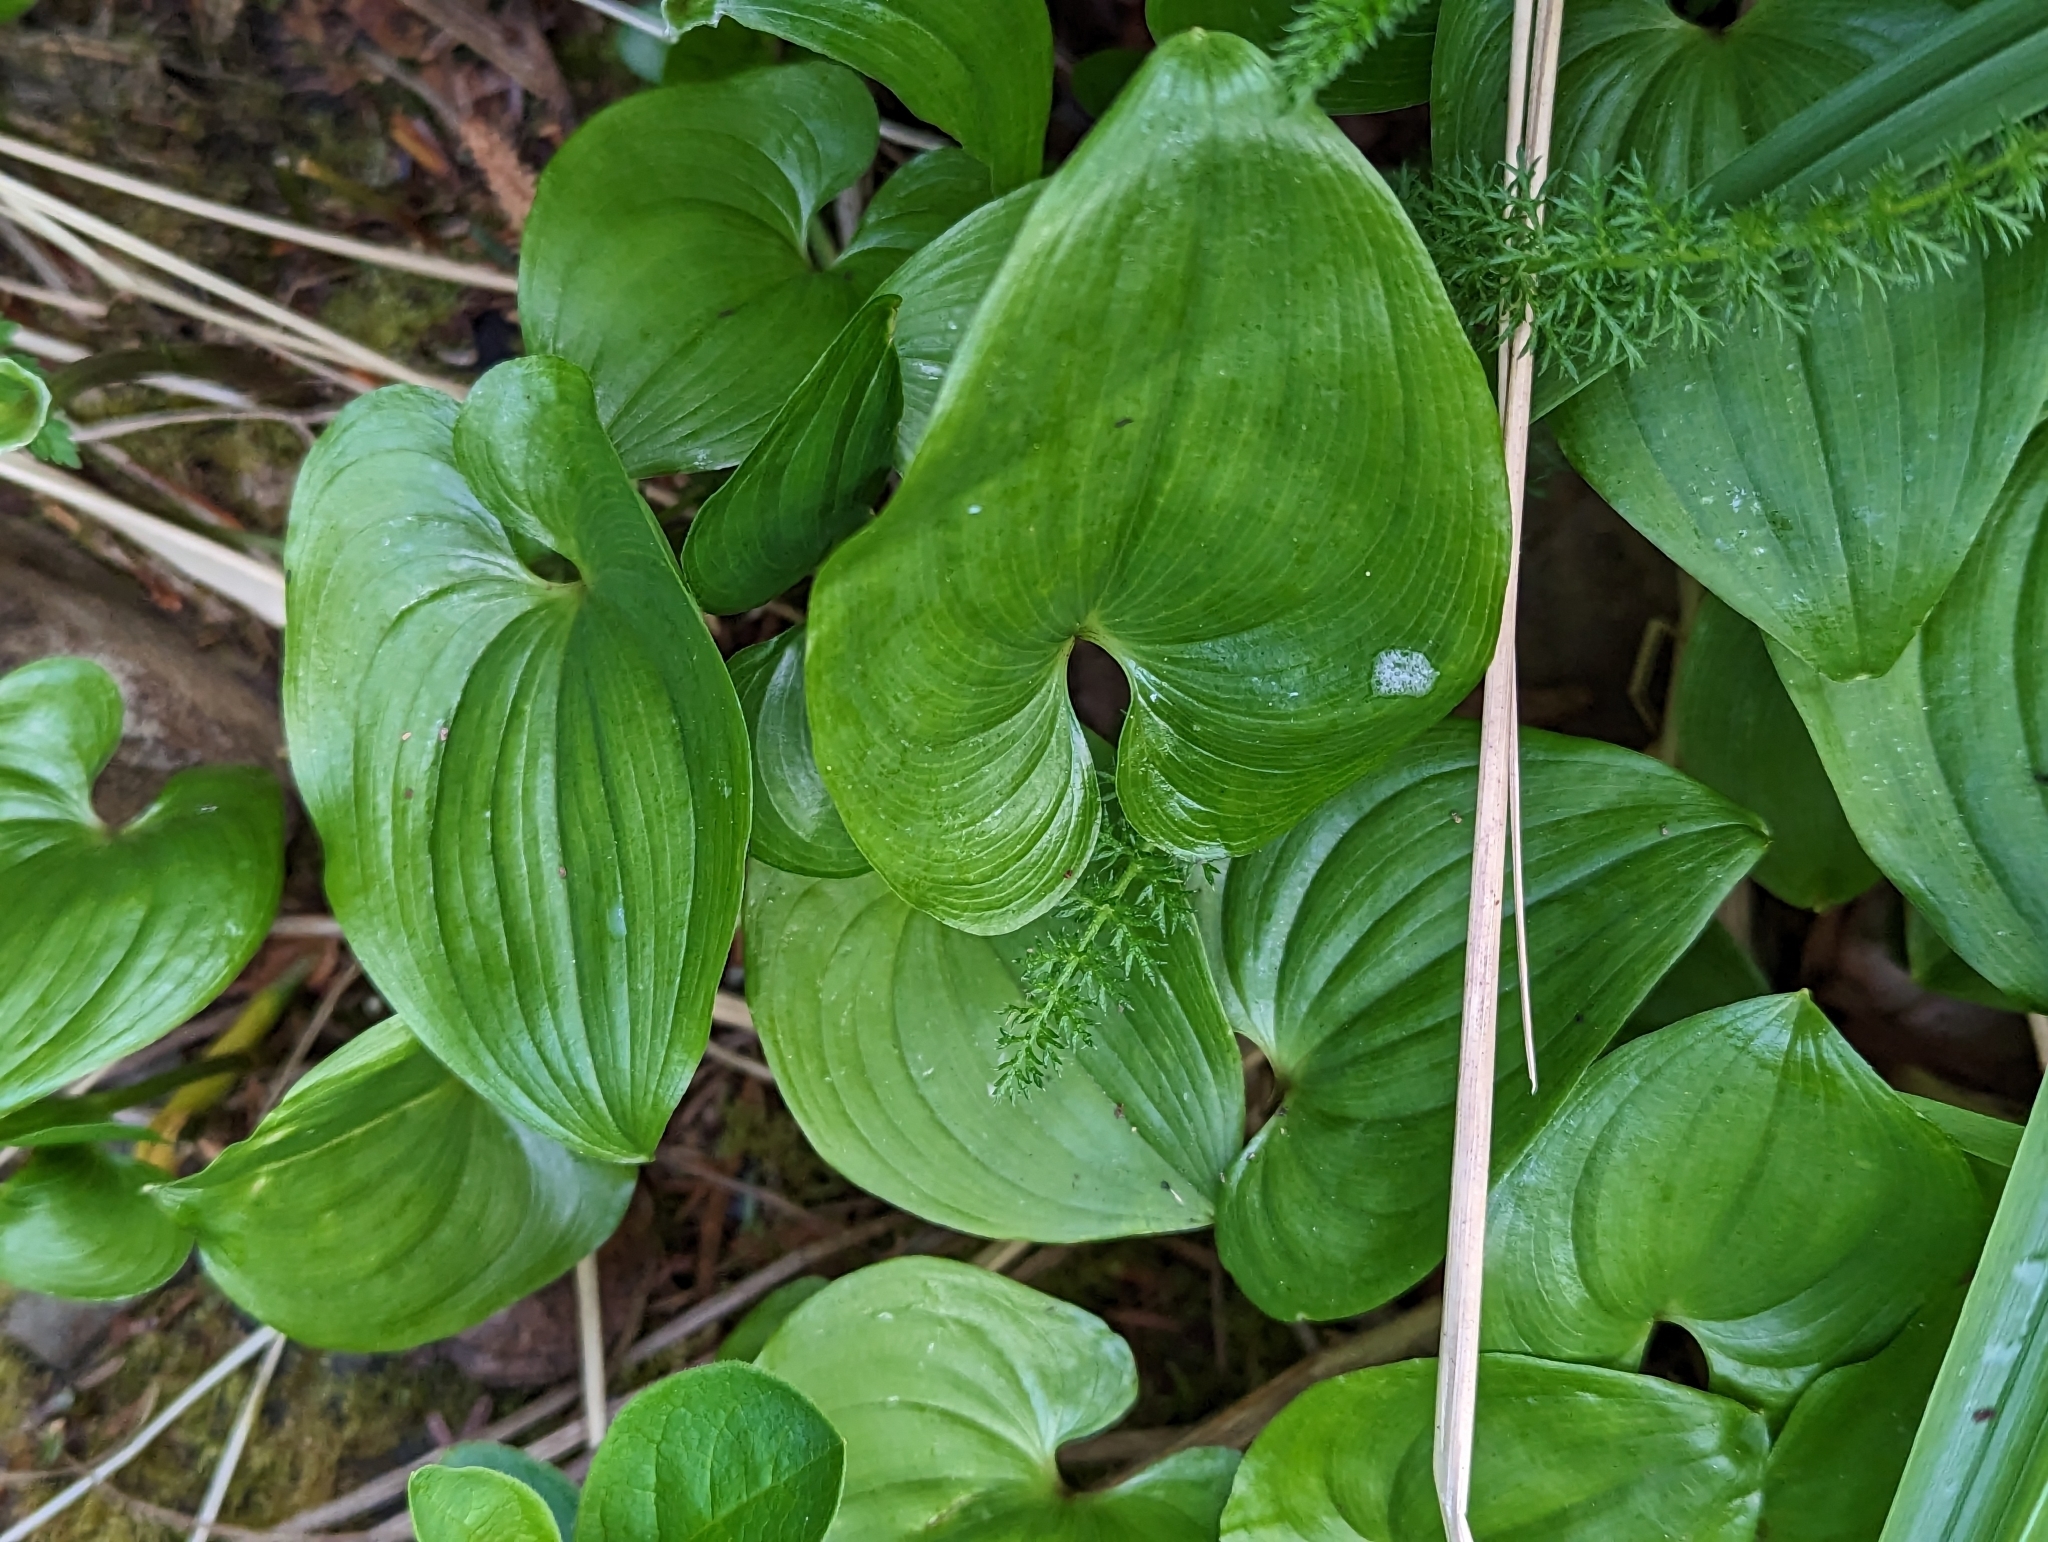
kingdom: Plantae
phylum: Tracheophyta
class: Liliopsida
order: Asparagales
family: Asparagaceae
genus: Maianthemum
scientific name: Maianthemum dilatatum
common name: False lily-of-the-valley
